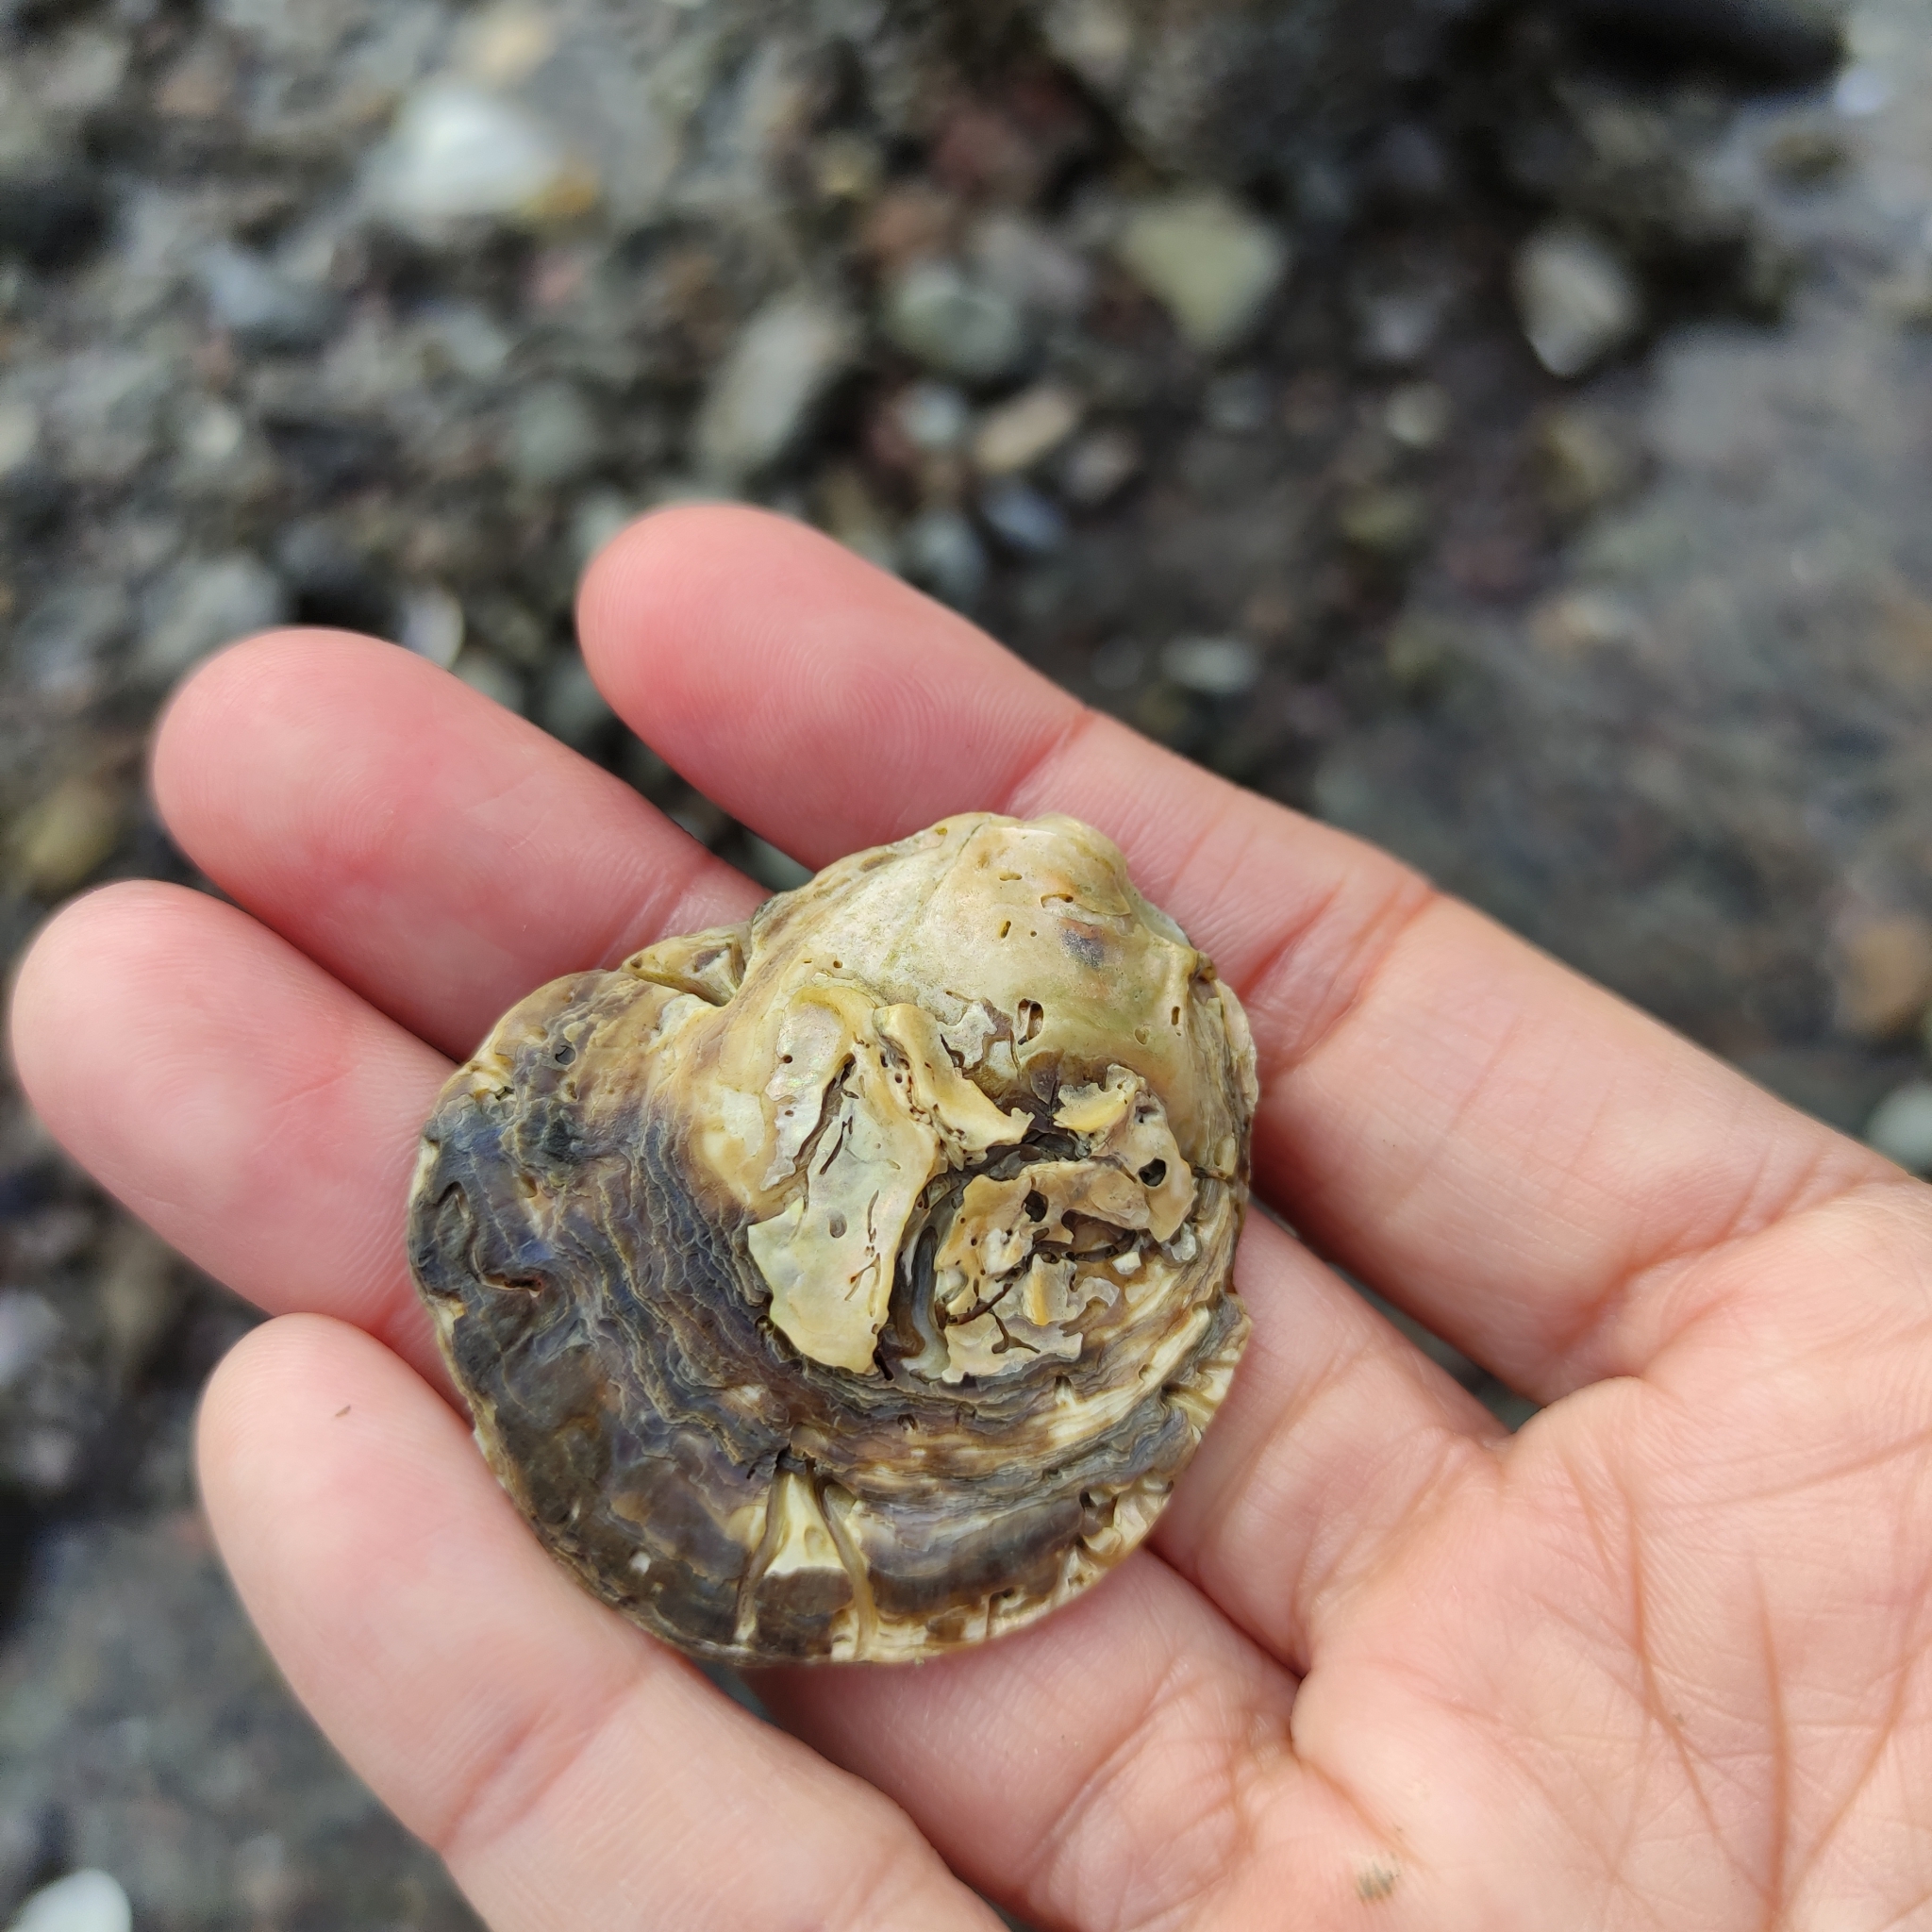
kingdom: Animalia
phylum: Mollusca
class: Bivalvia
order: Ostreida
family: Ostreidae
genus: Ostrea
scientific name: Ostrea chilensis
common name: Chilean oyster
